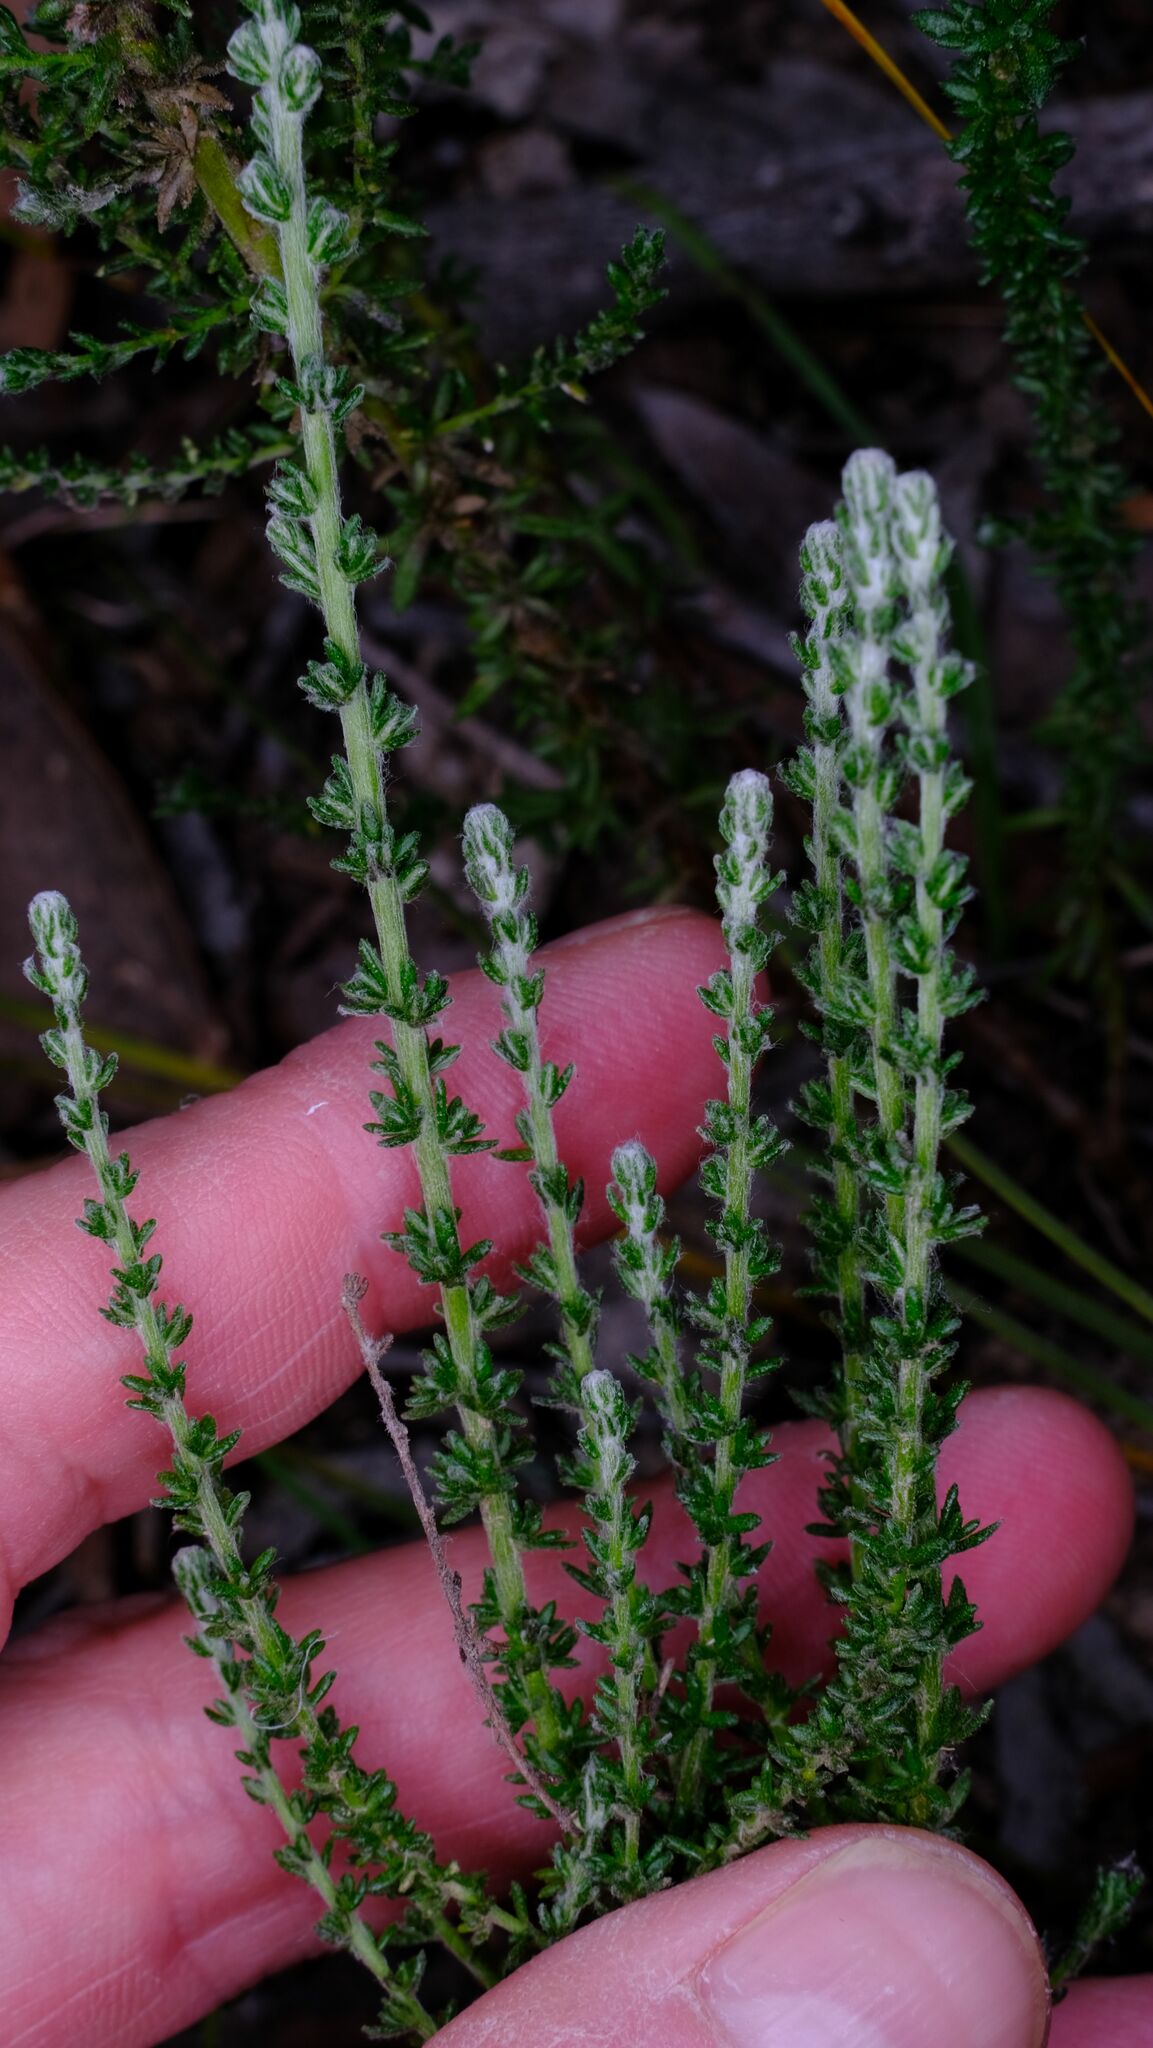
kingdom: Plantae
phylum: Tracheophyta
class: Magnoliopsida
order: Asterales
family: Asteraceae
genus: Olearia
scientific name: Olearia floribunda
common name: Heath daisybush
